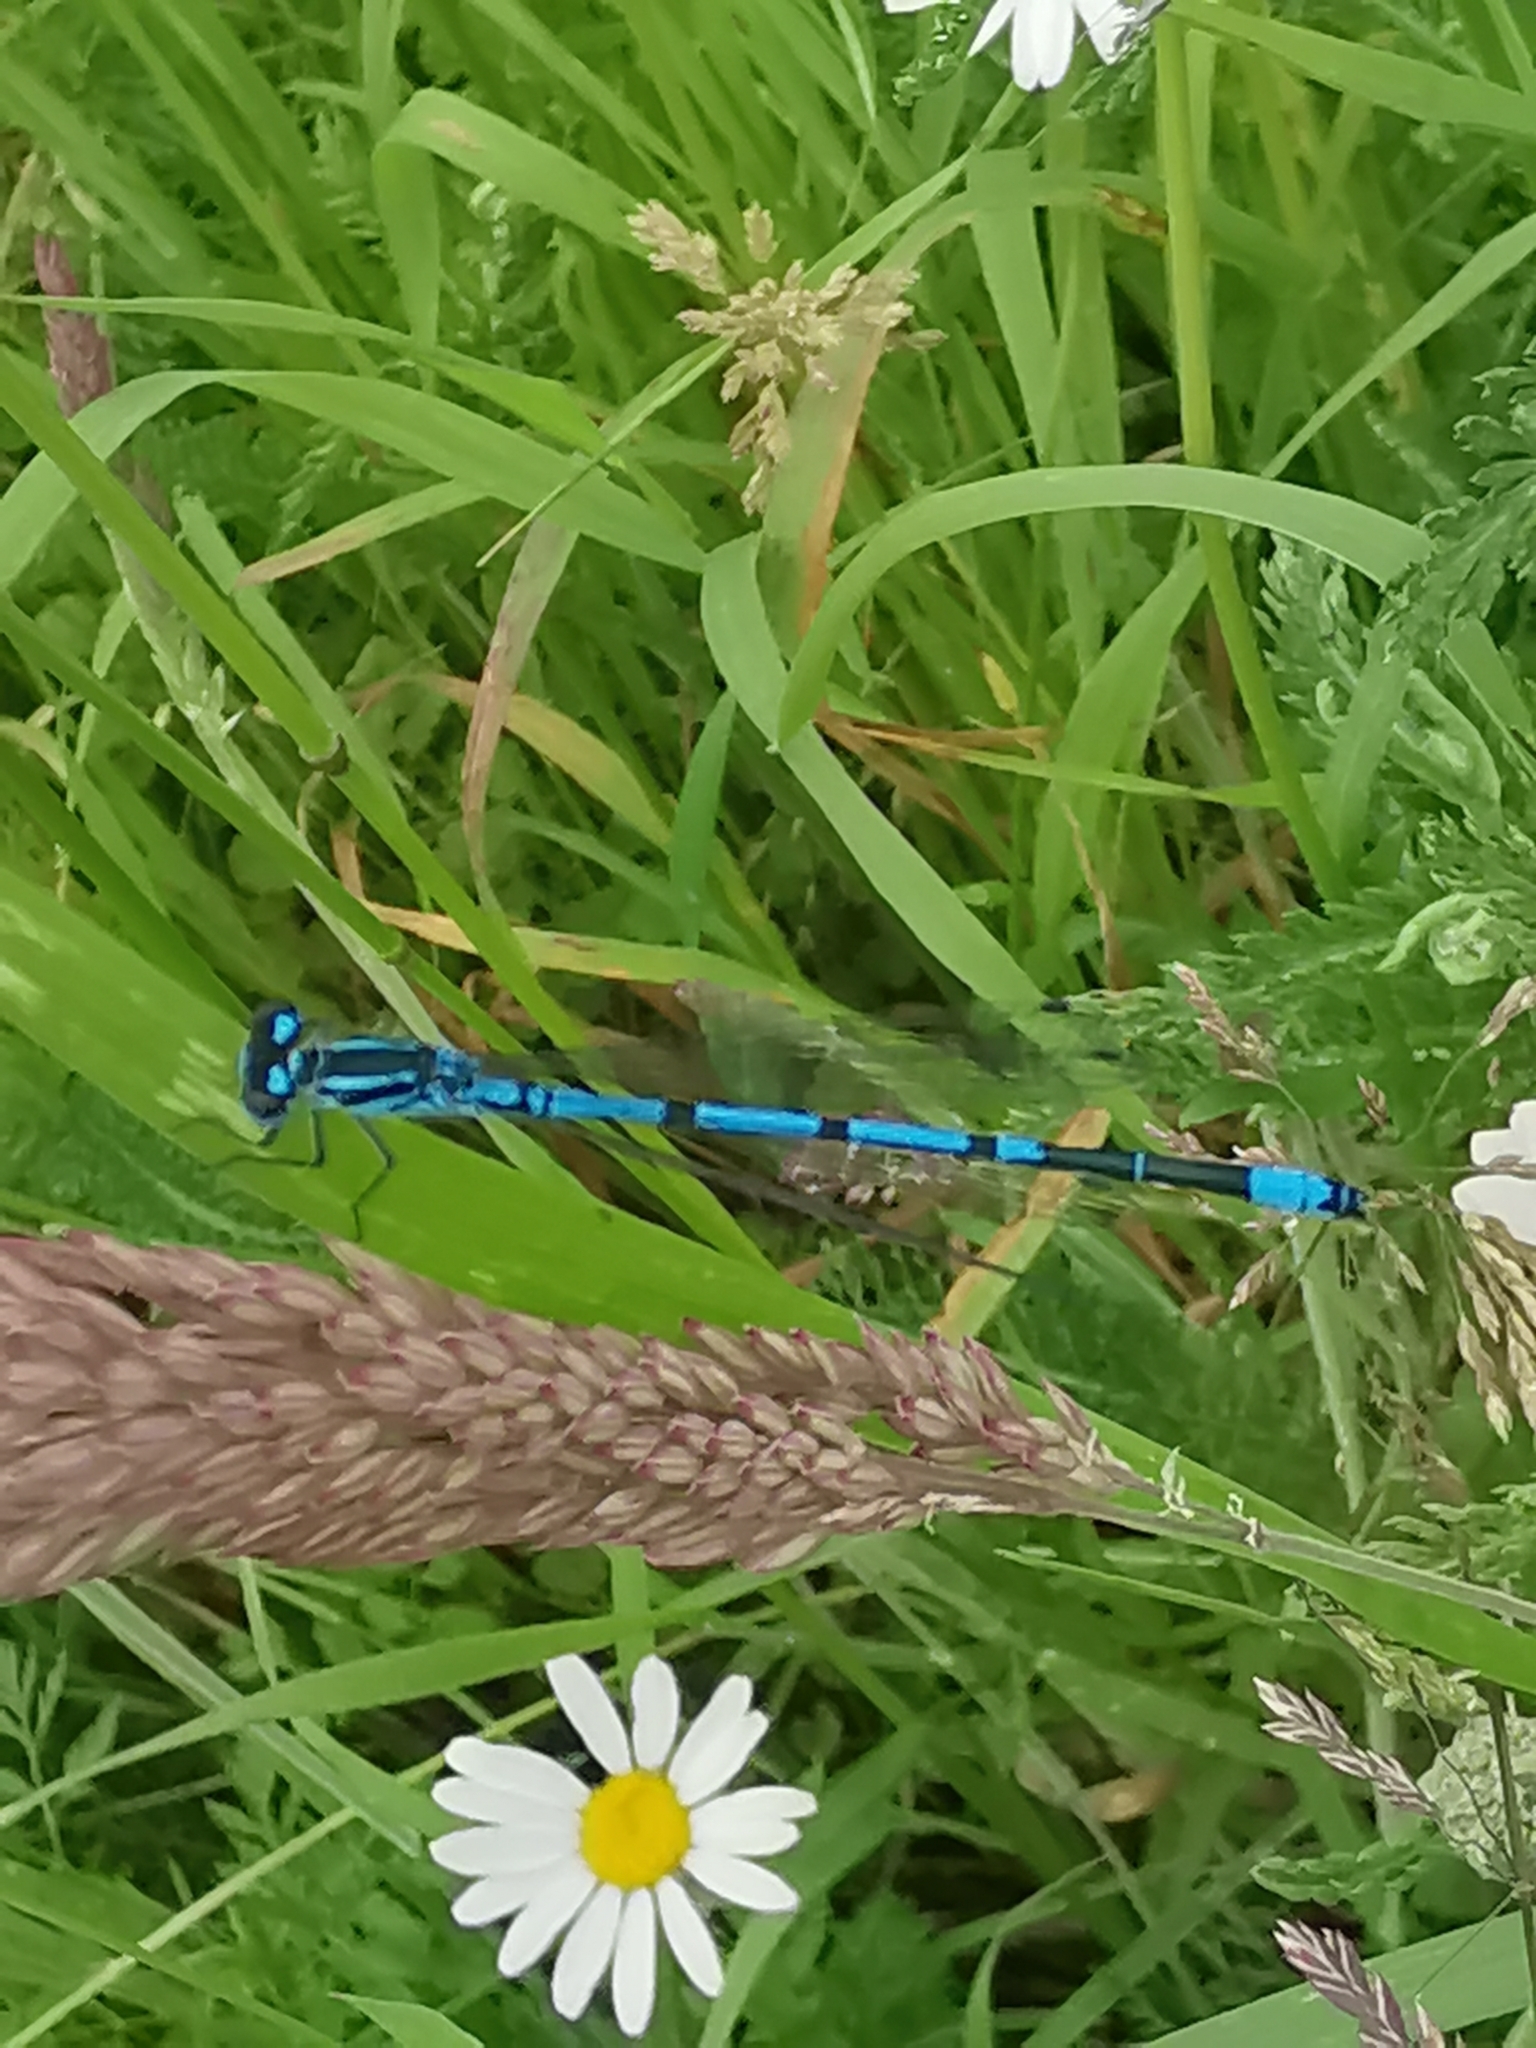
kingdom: Animalia
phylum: Arthropoda
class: Insecta
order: Odonata
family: Coenagrionidae
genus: Coenagrion
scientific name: Coenagrion puella
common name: Azure damselfly
